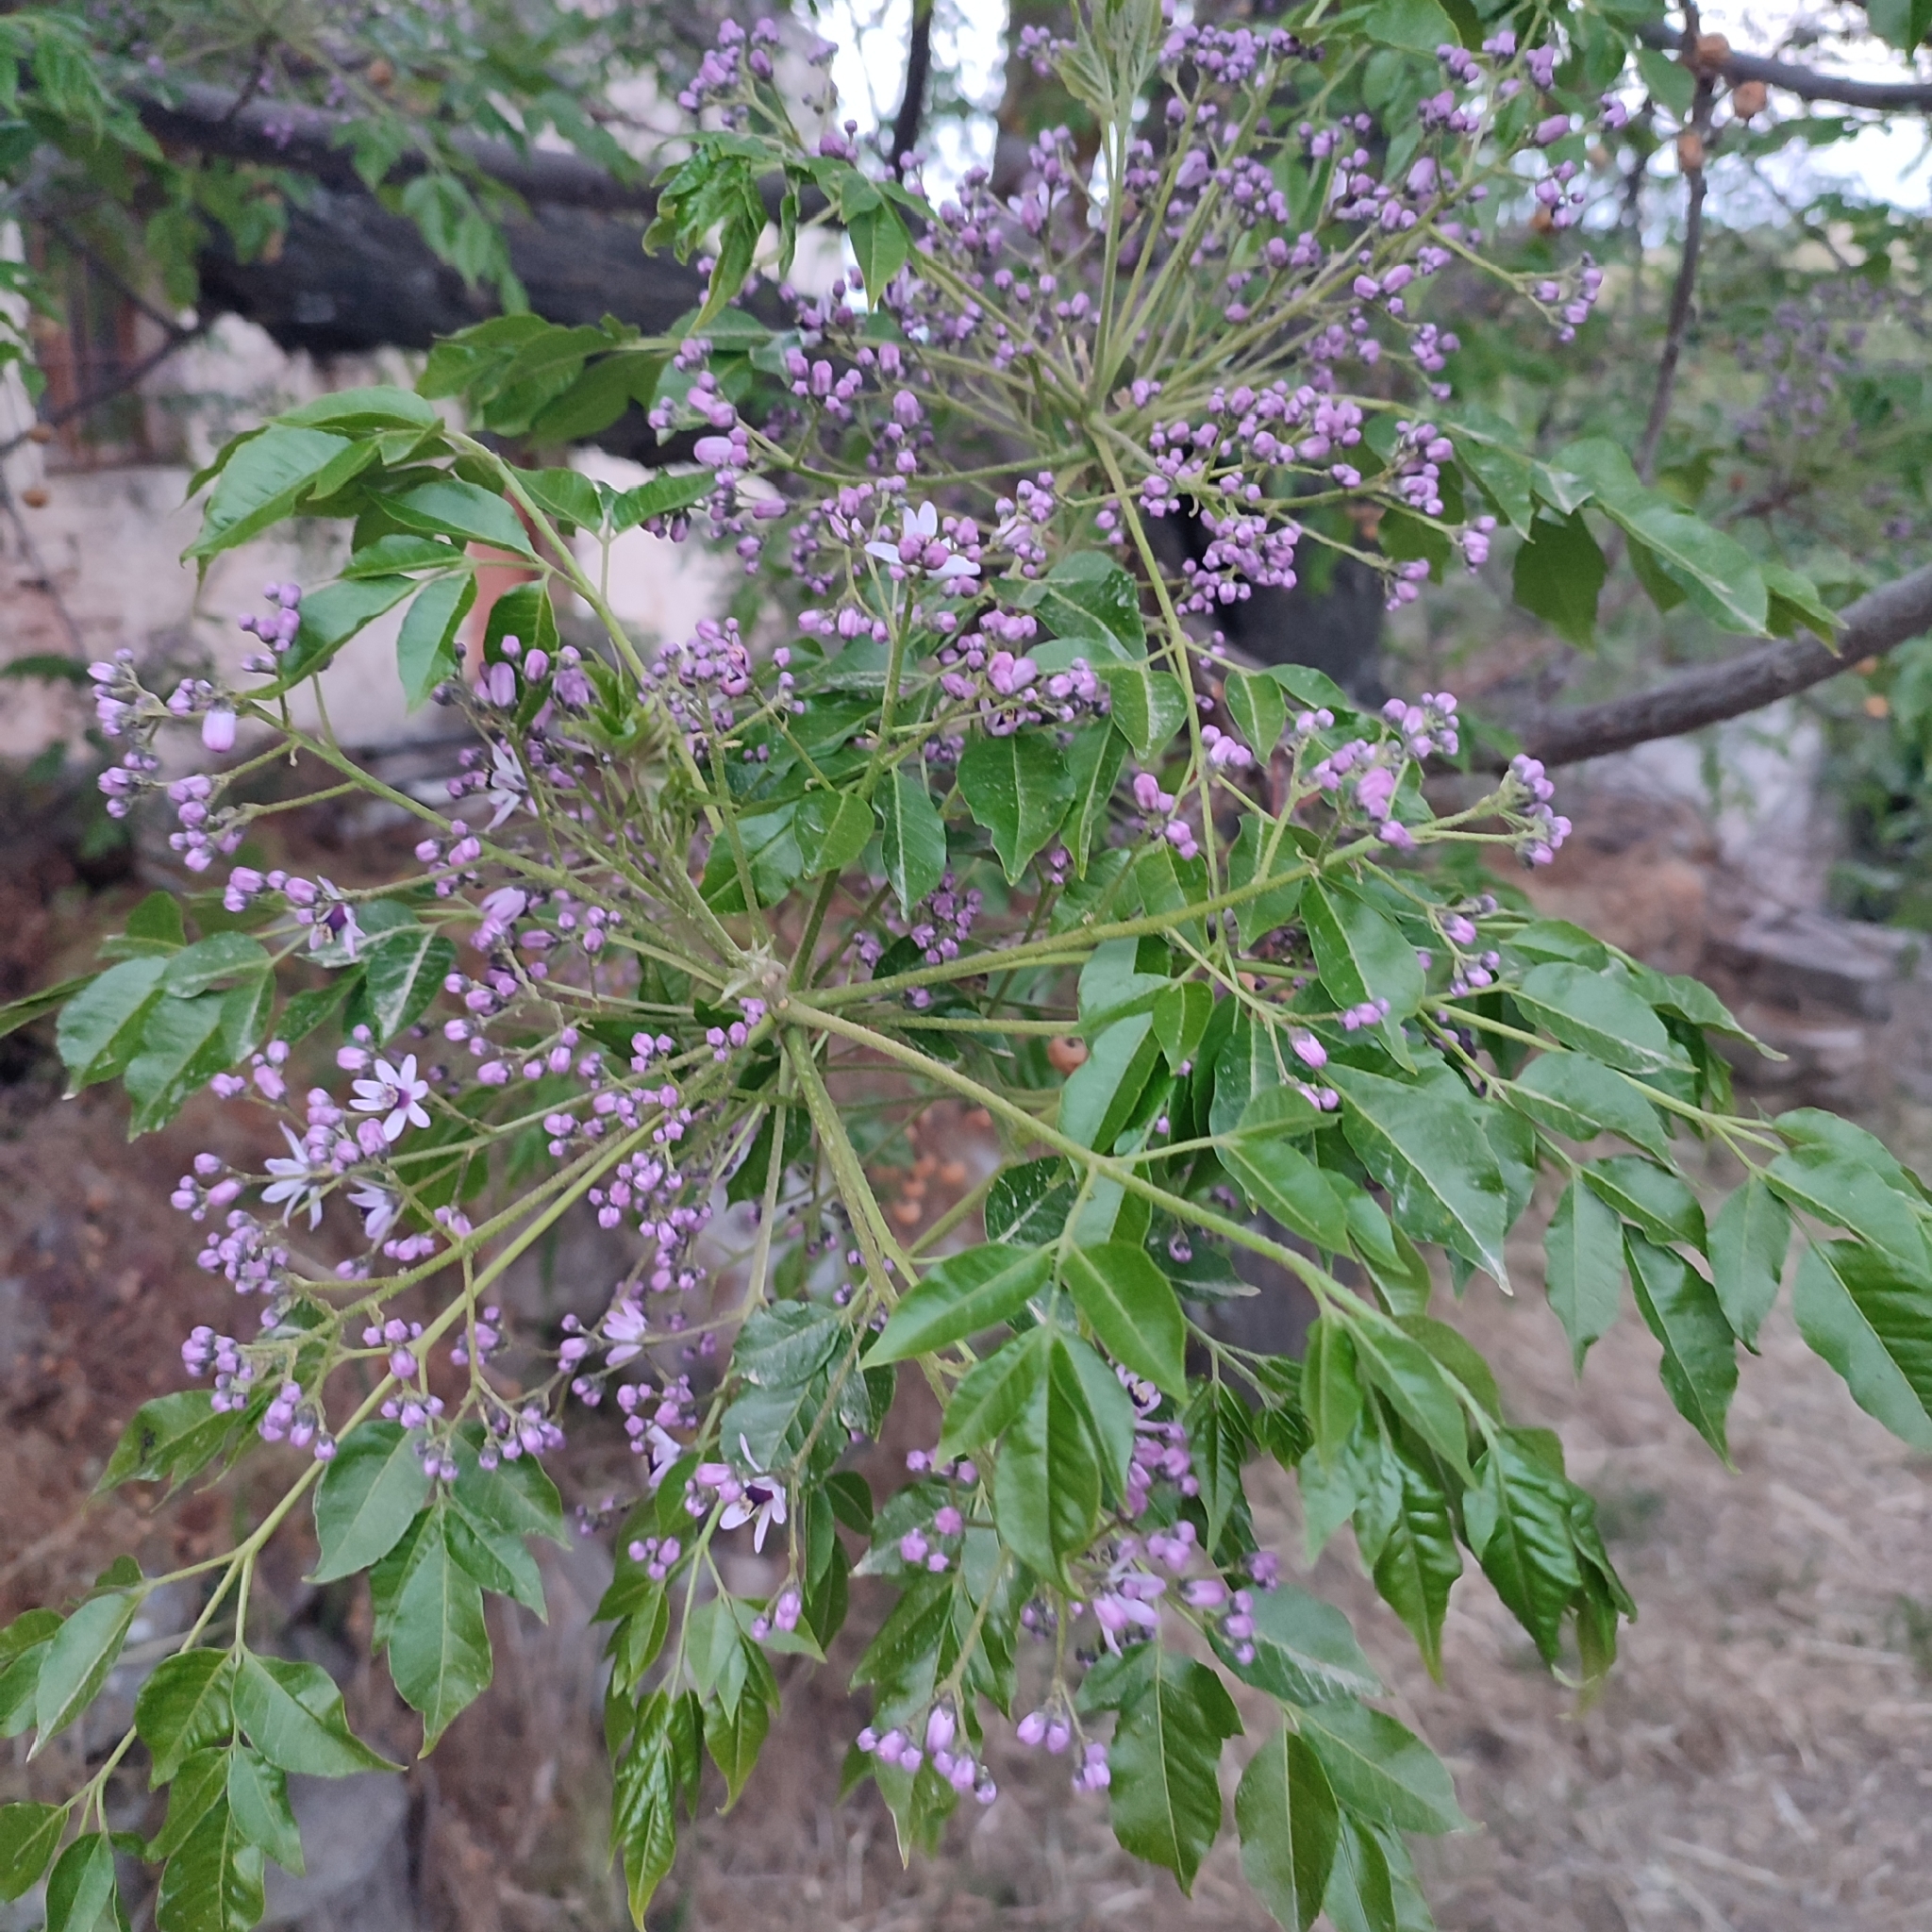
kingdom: Plantae
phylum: Tracheophyta
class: Magnoliopsida
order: Sapindales
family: Meliaceae
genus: Melia
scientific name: Melia azedarach
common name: Chinaberrytree
